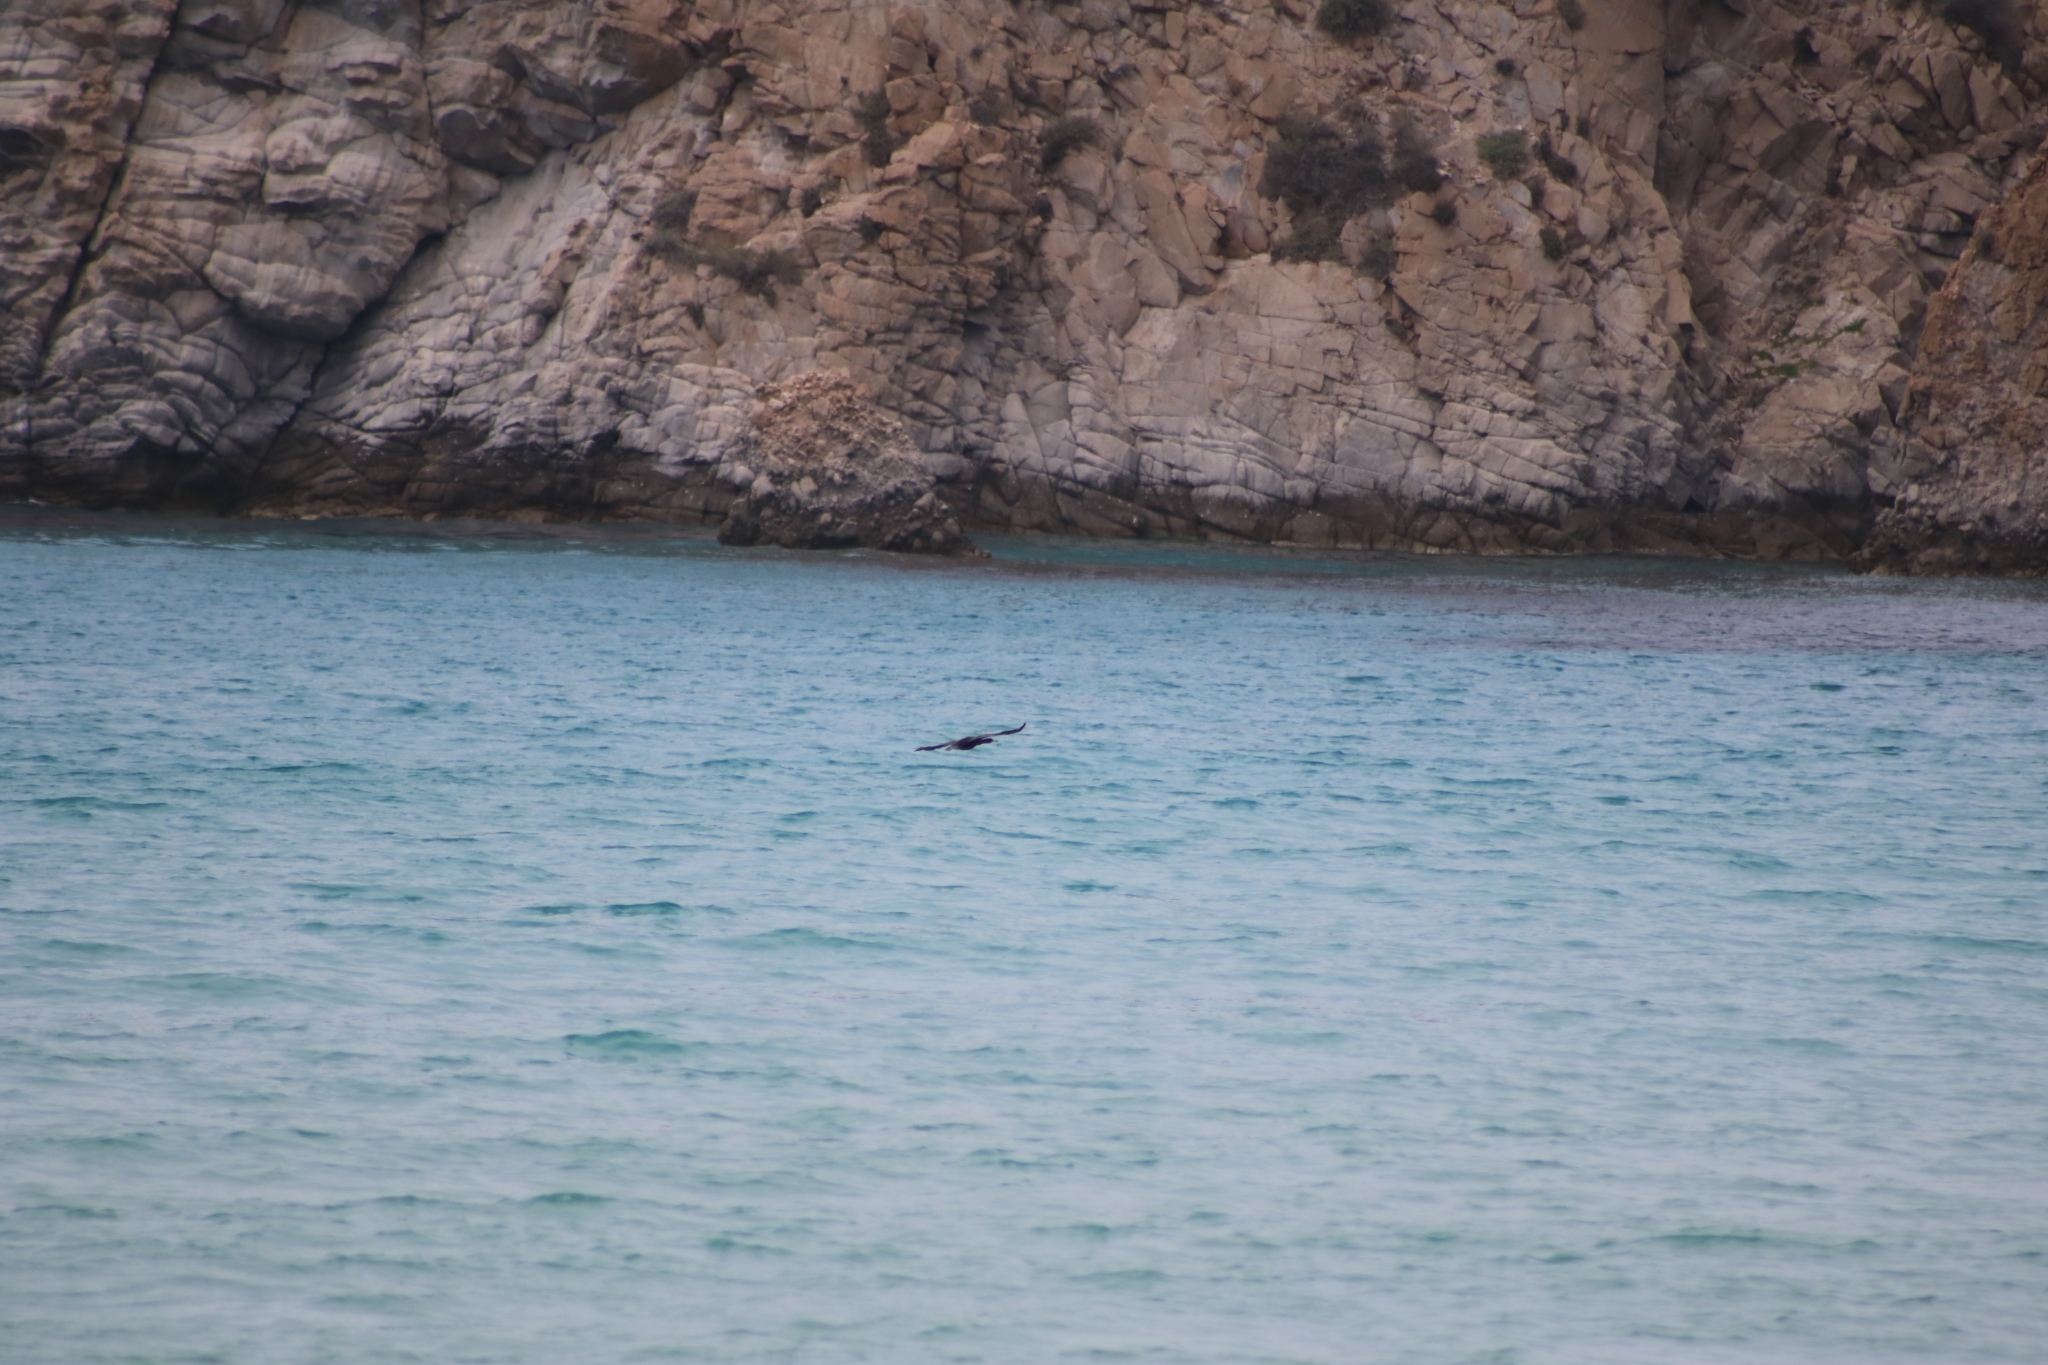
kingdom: Animalia
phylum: Chordata
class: Aves
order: Suliformes
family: Phalacrocoracidae
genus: Phalacrocorax
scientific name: Phalacrocorax aristotelis
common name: European shag
